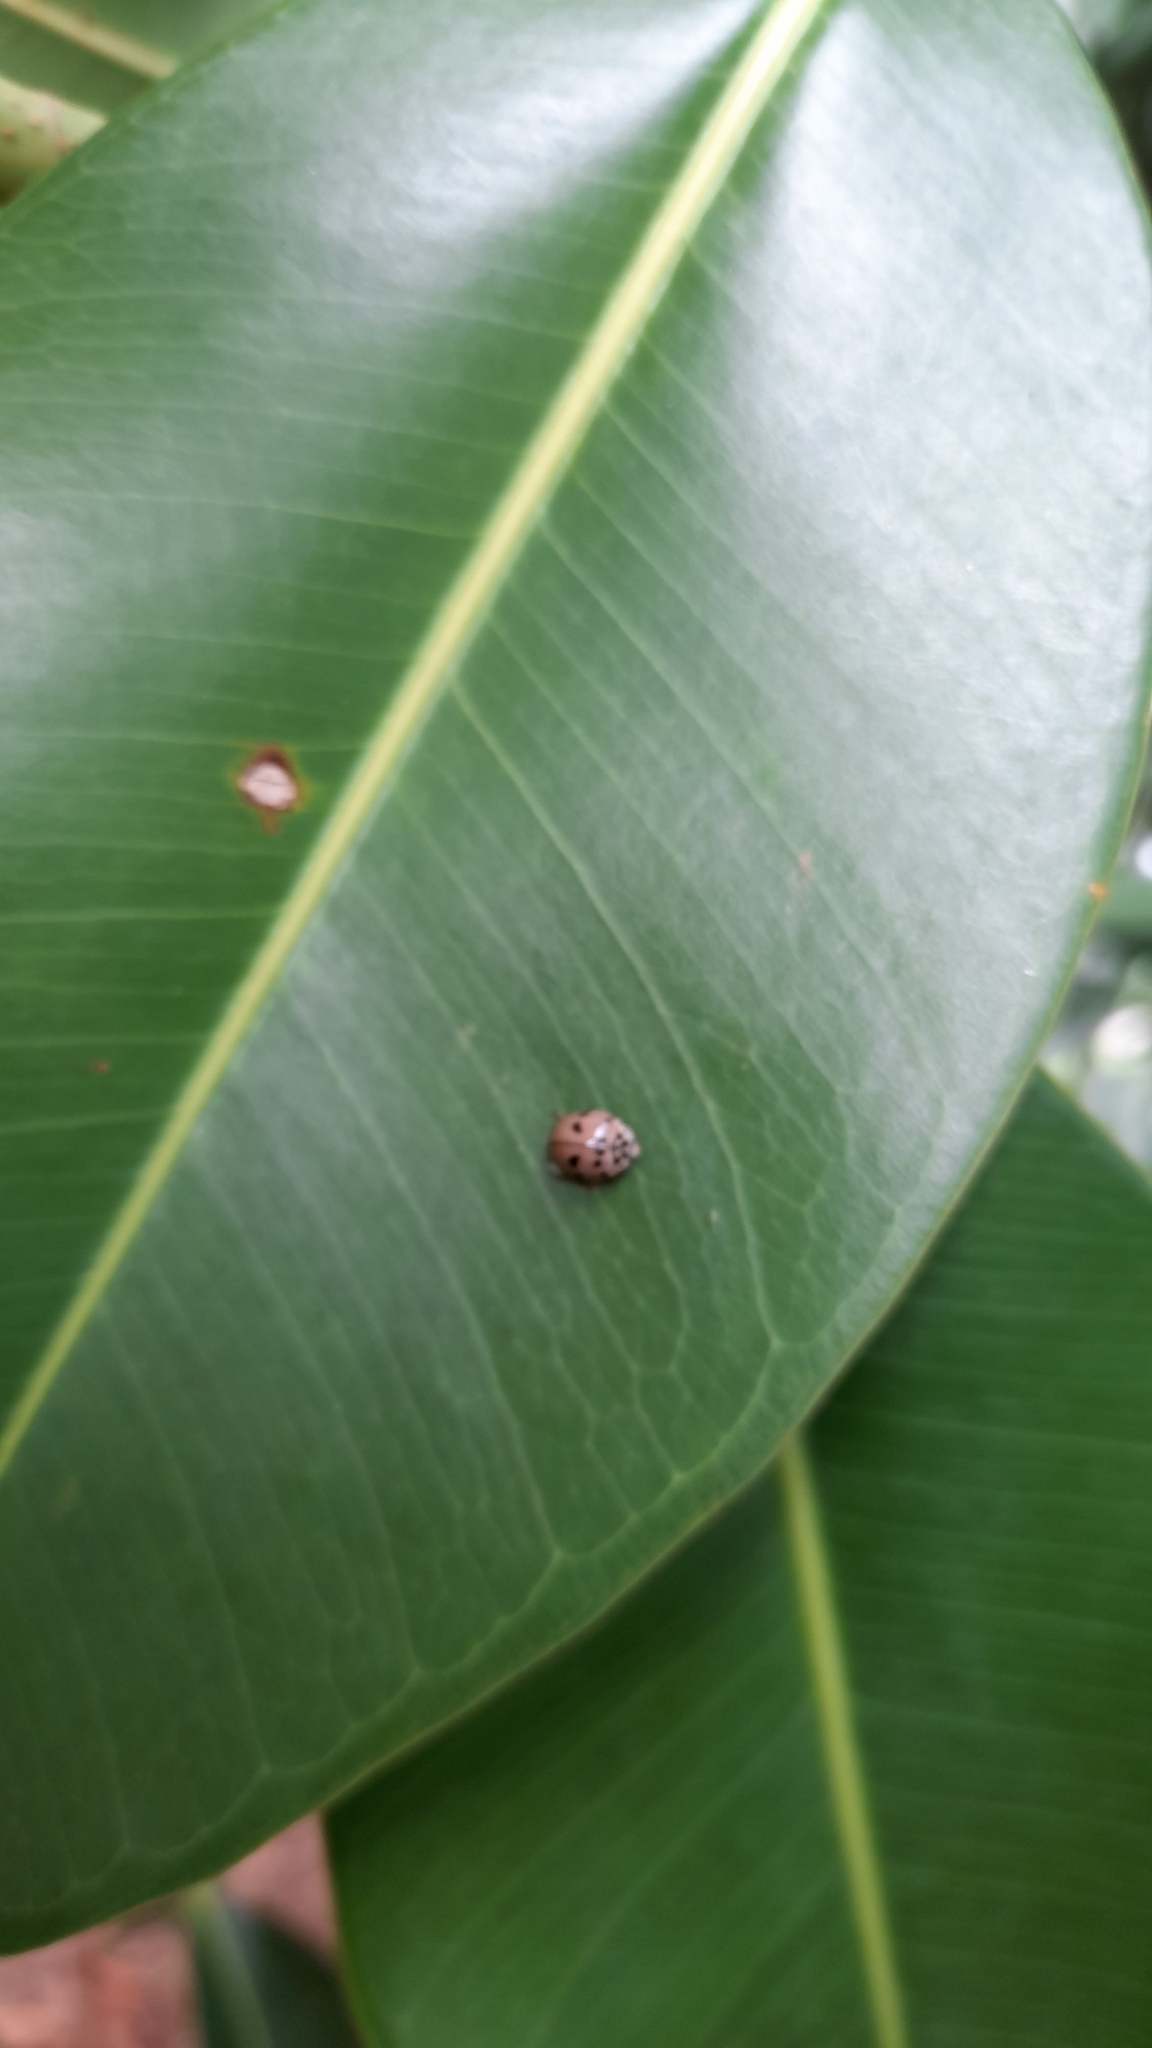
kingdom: Animalia
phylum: Arthropoda
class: Insecta
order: Coleoptera
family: Coccinellidae
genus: Olla
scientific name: Olla v-nigrum
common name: Ashy gray lady beetle
